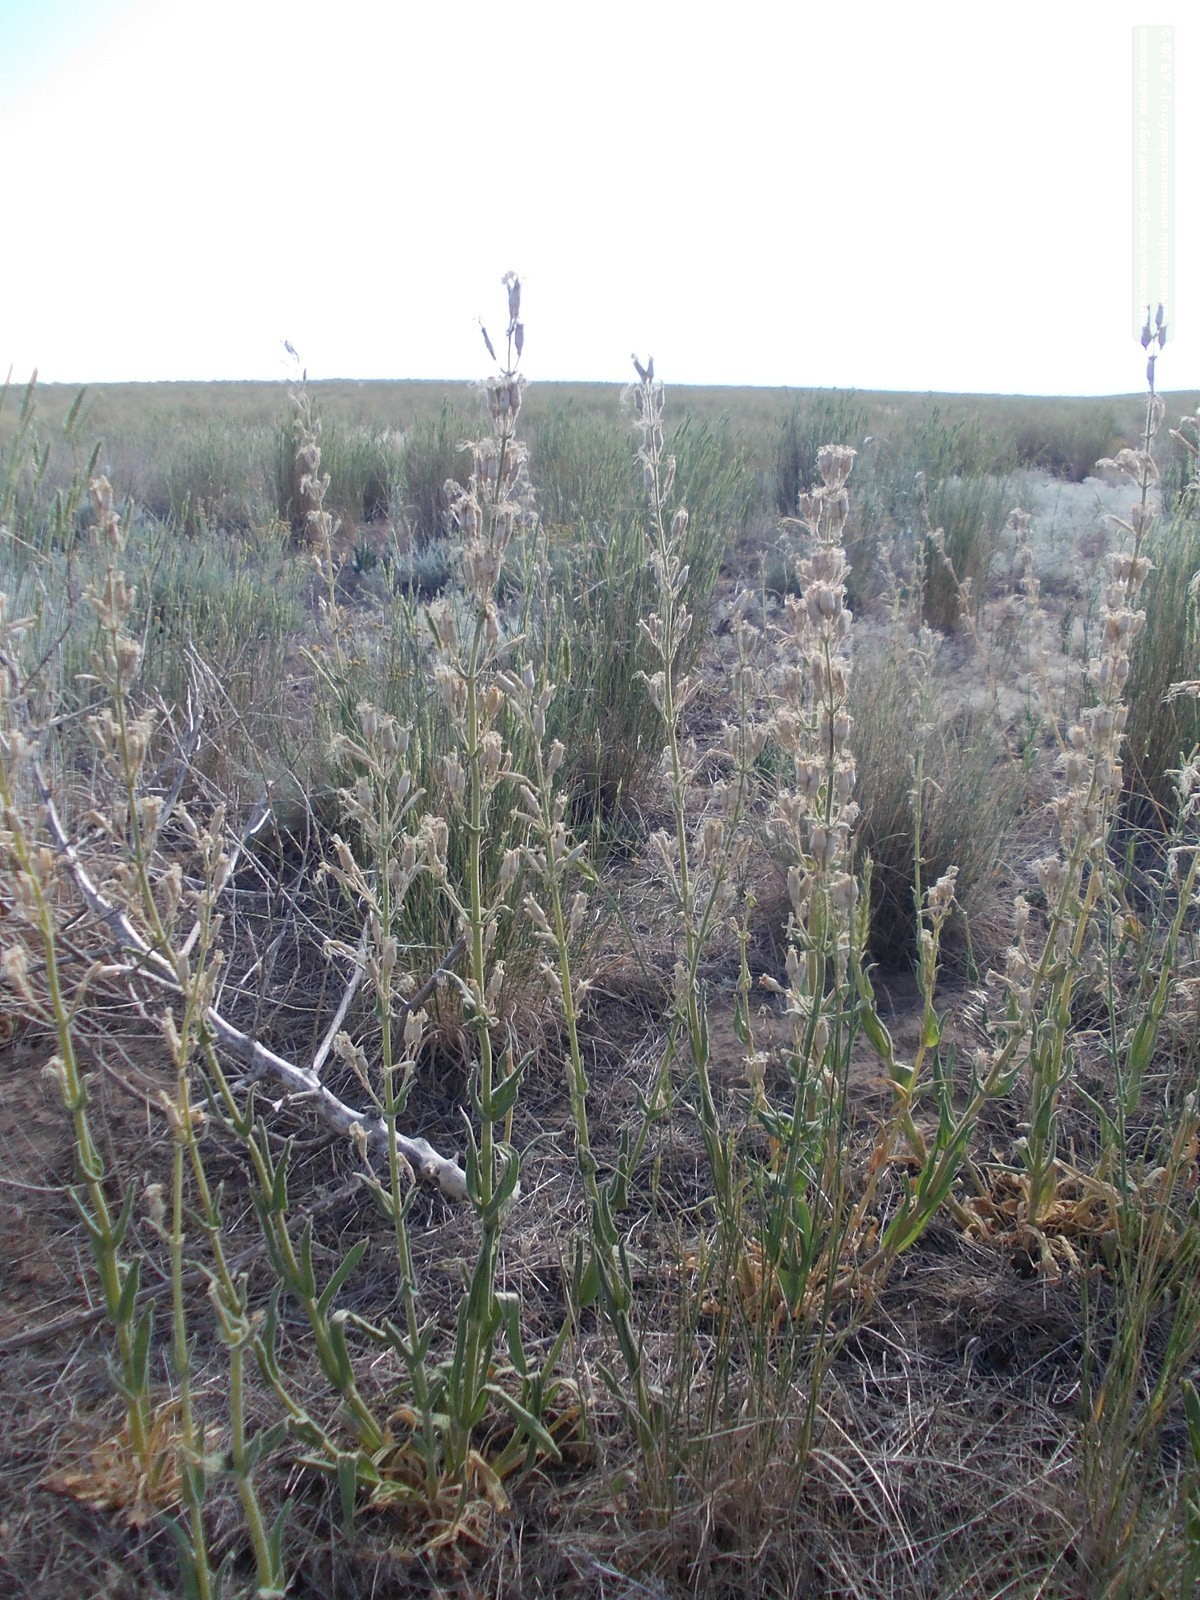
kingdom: Plantae
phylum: Tracheophyta
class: Magnoliopsida
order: Caryophyllales
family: Caryophyllaceae
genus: Silene
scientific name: Silene viscosa
